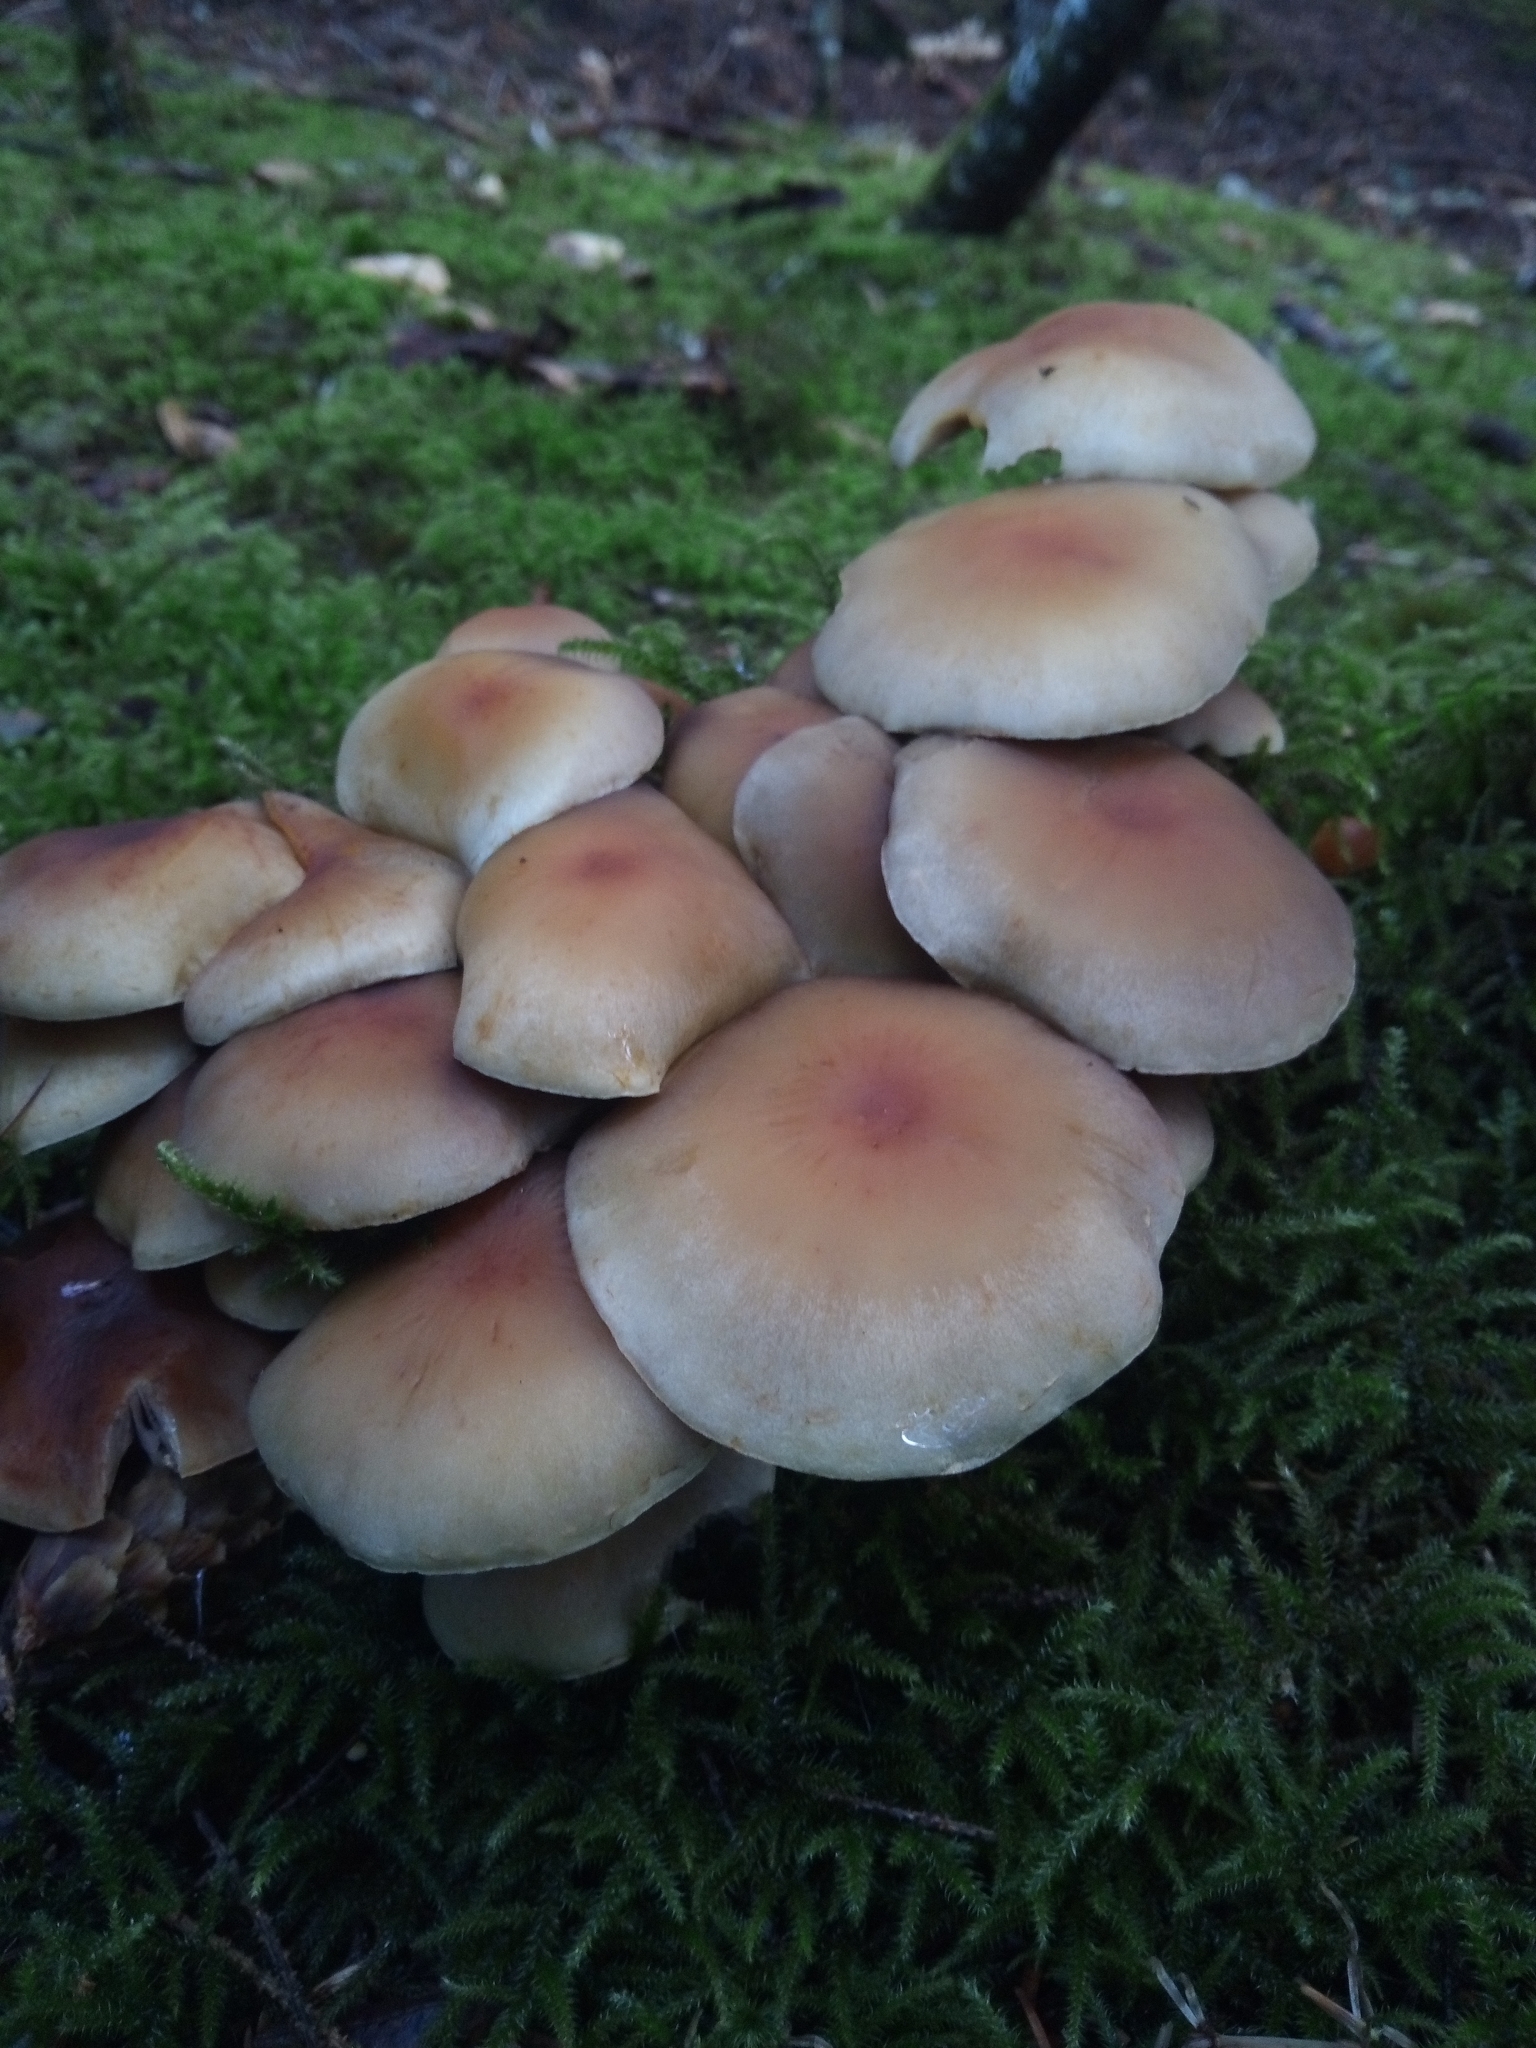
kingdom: Fungi
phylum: Basidiomycota
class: Agaricomycetes
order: Agaricales
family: Strophariaceae
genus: Hypholoma
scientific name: Hypholoma capnoides
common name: Conifer tuft
